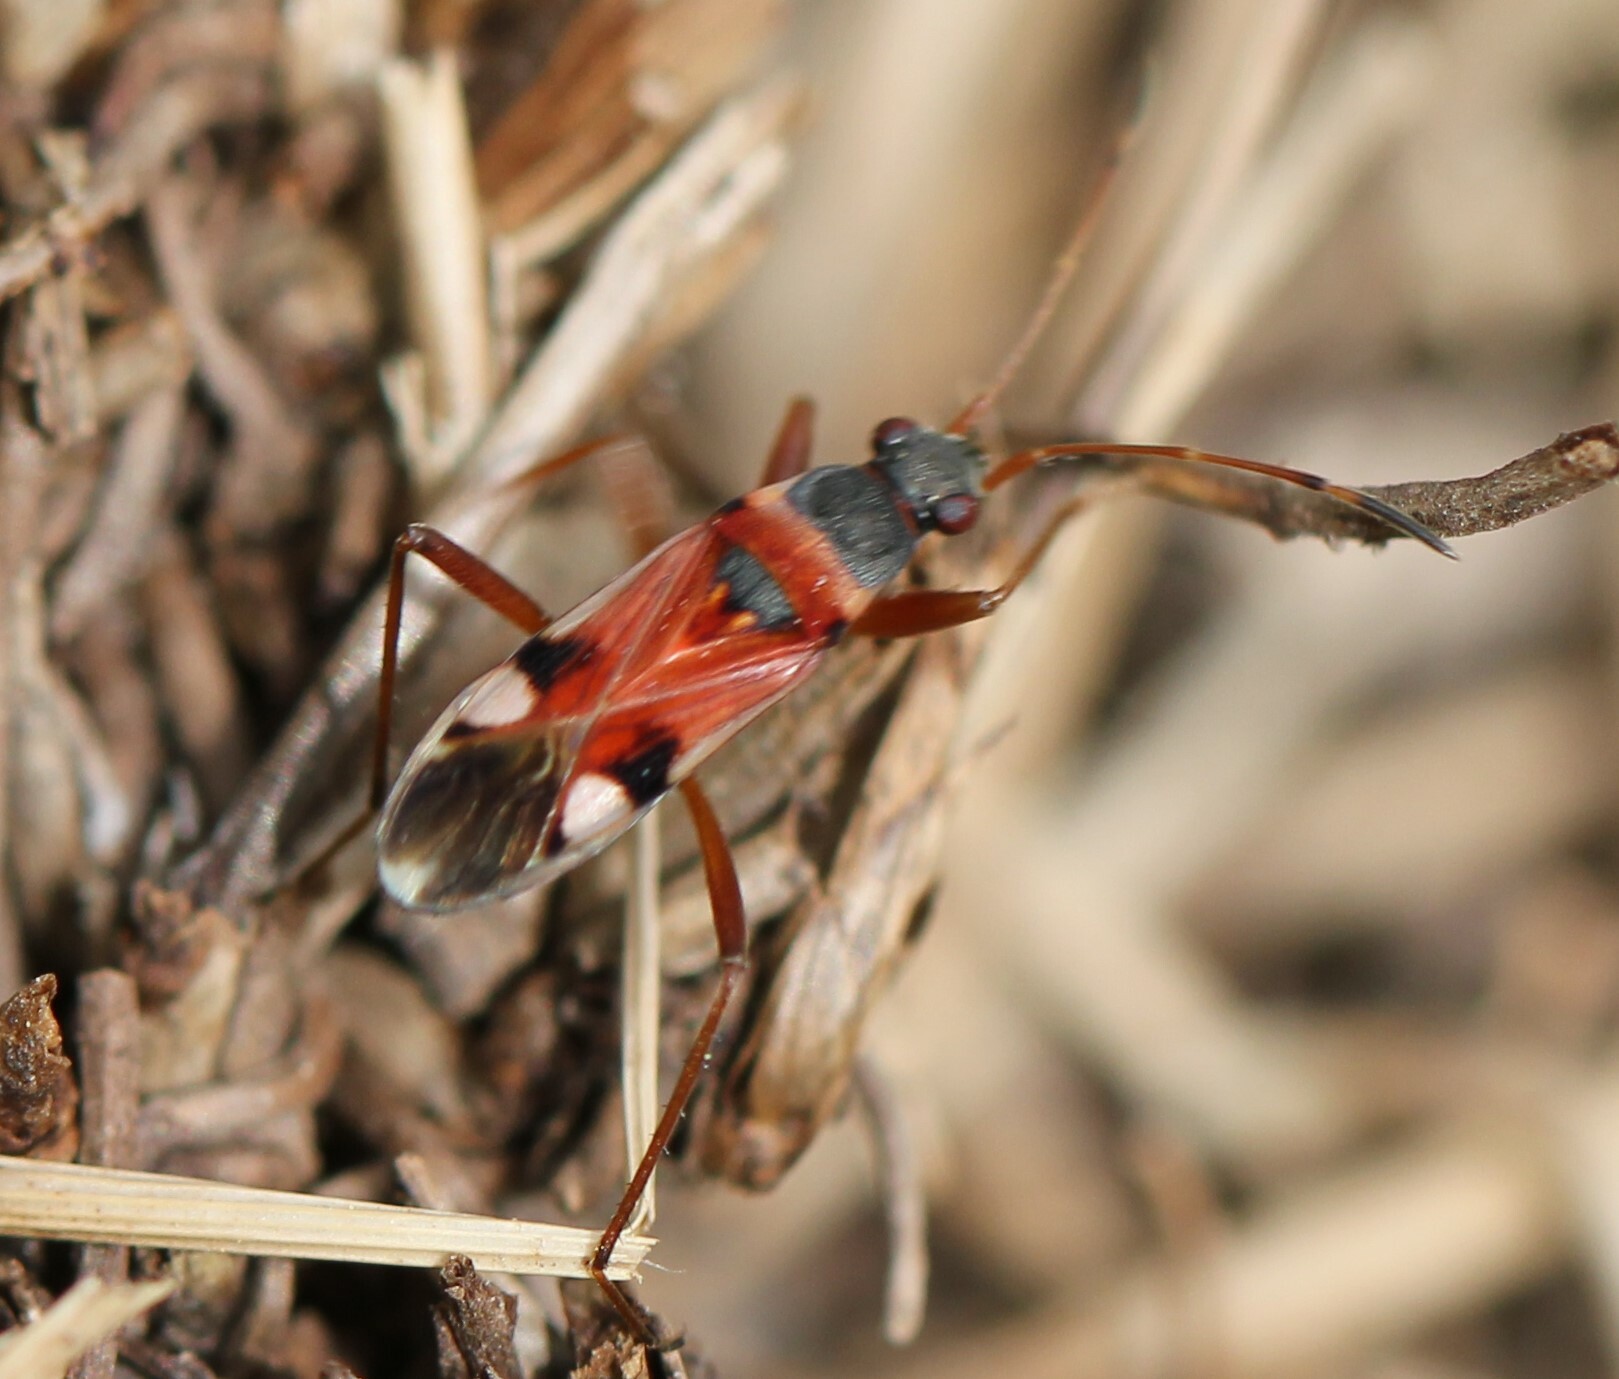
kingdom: Animalia
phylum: Arthropoda
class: Insecta
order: Hemiptera
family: Rhyparochromidae
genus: Beosus
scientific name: Beosus quadripunctatus
